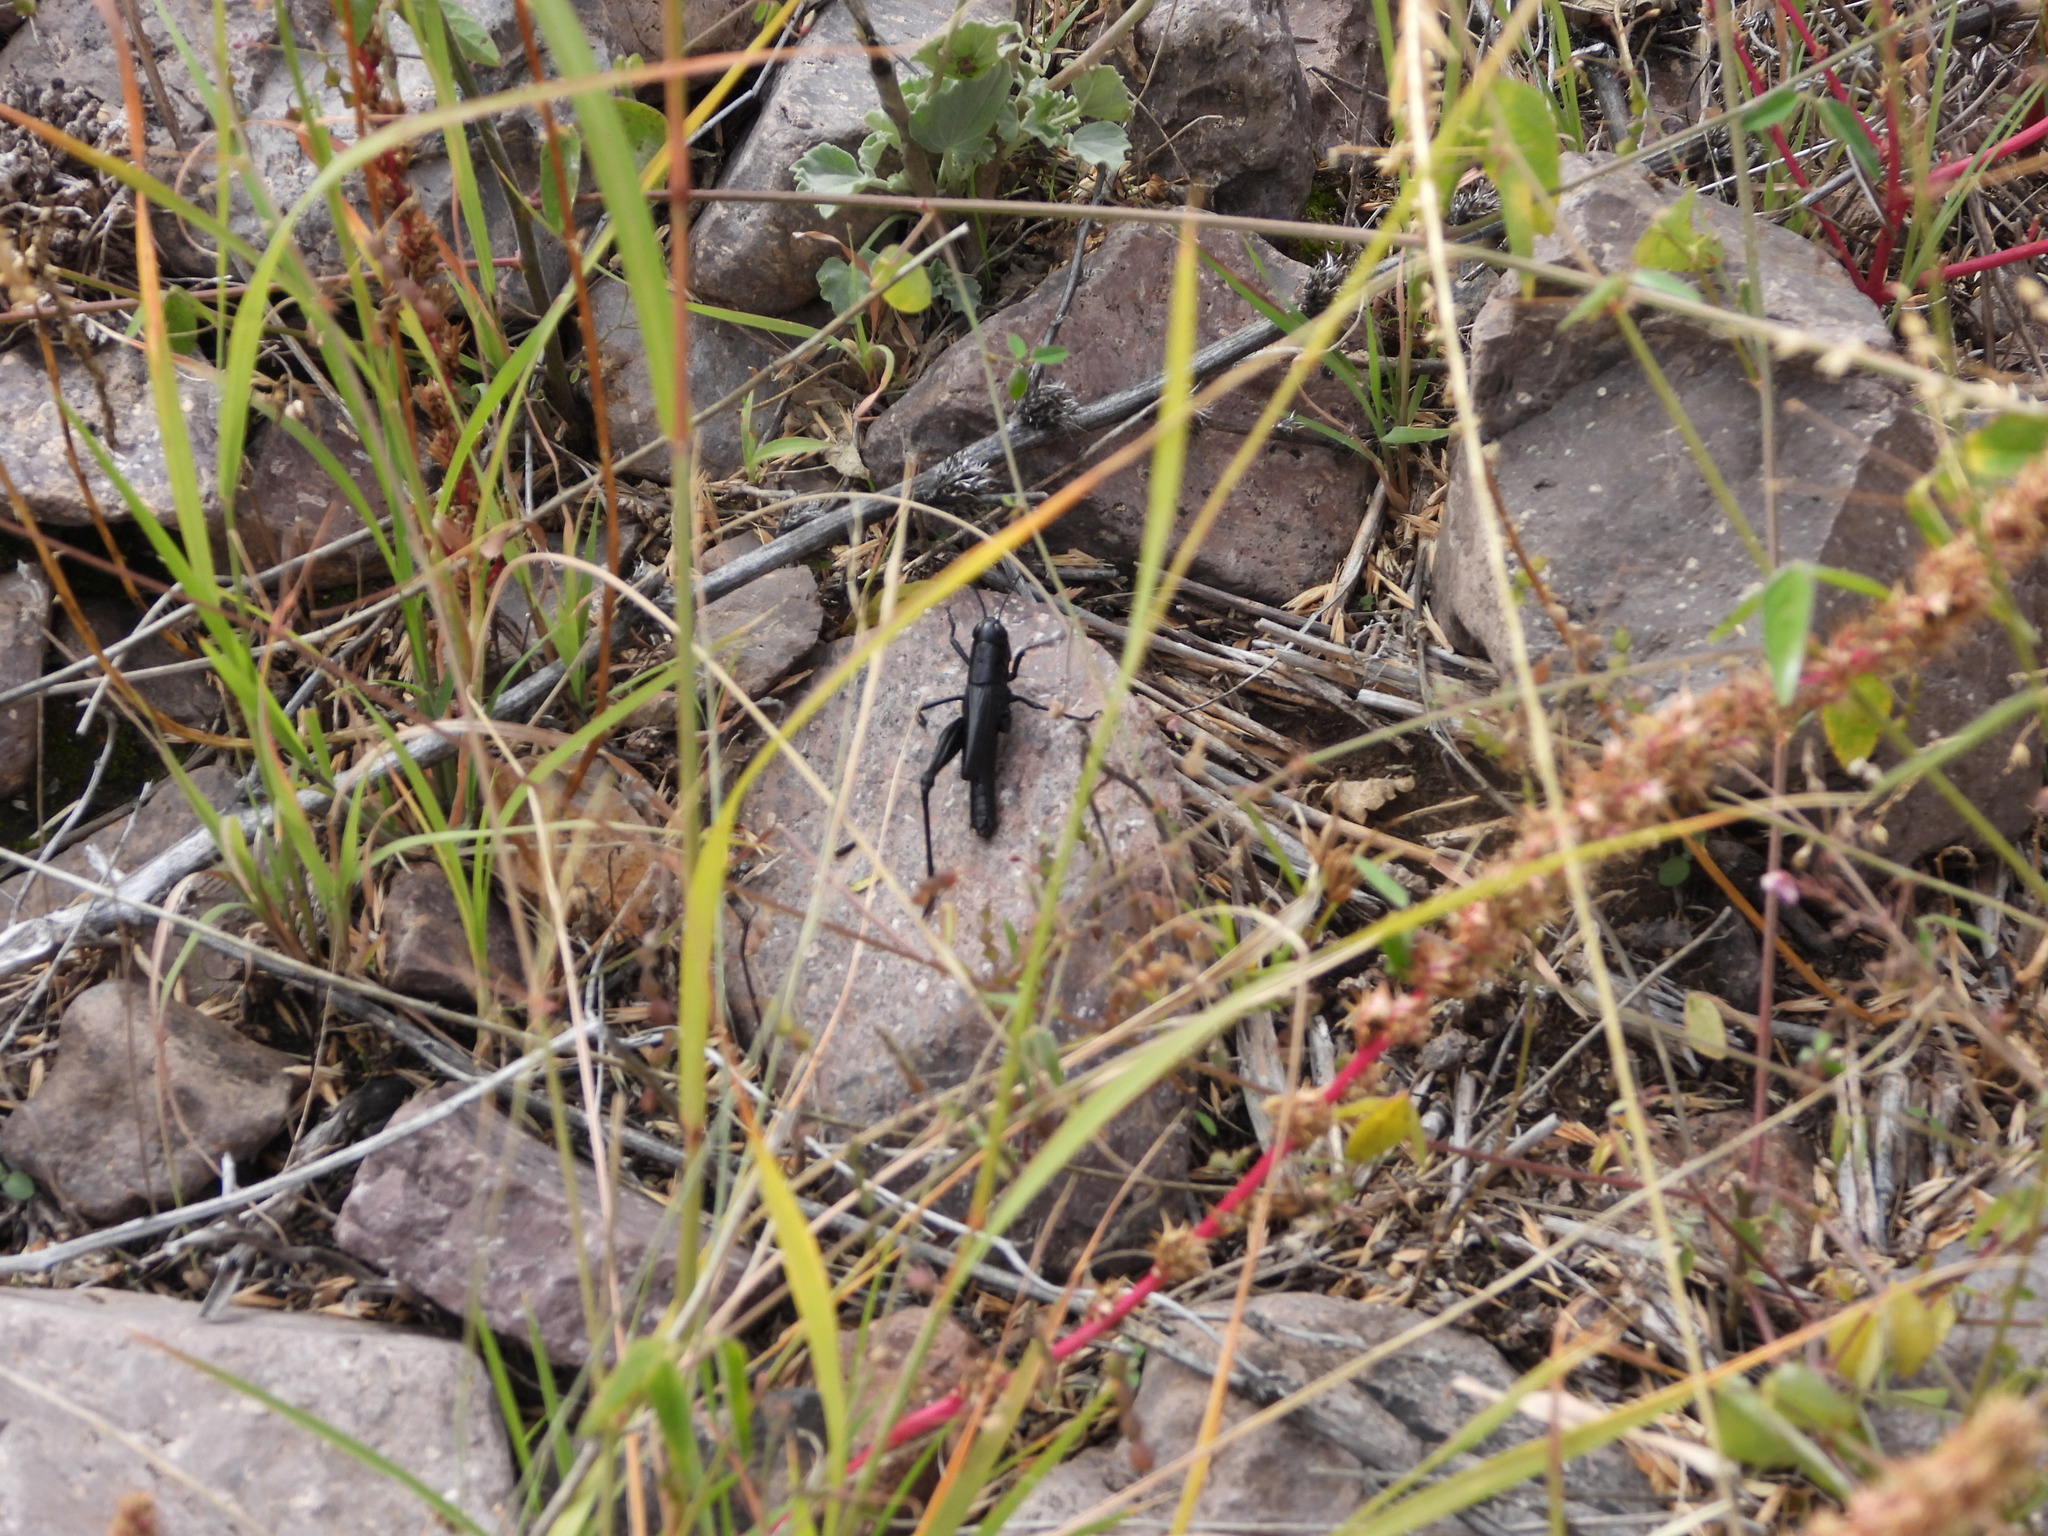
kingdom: Animalia
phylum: Arthropoda
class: Insecta
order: Orthoptera
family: Acrididae
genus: Boopedon
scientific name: Boopedon nubilum
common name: Ebony grasshopper
